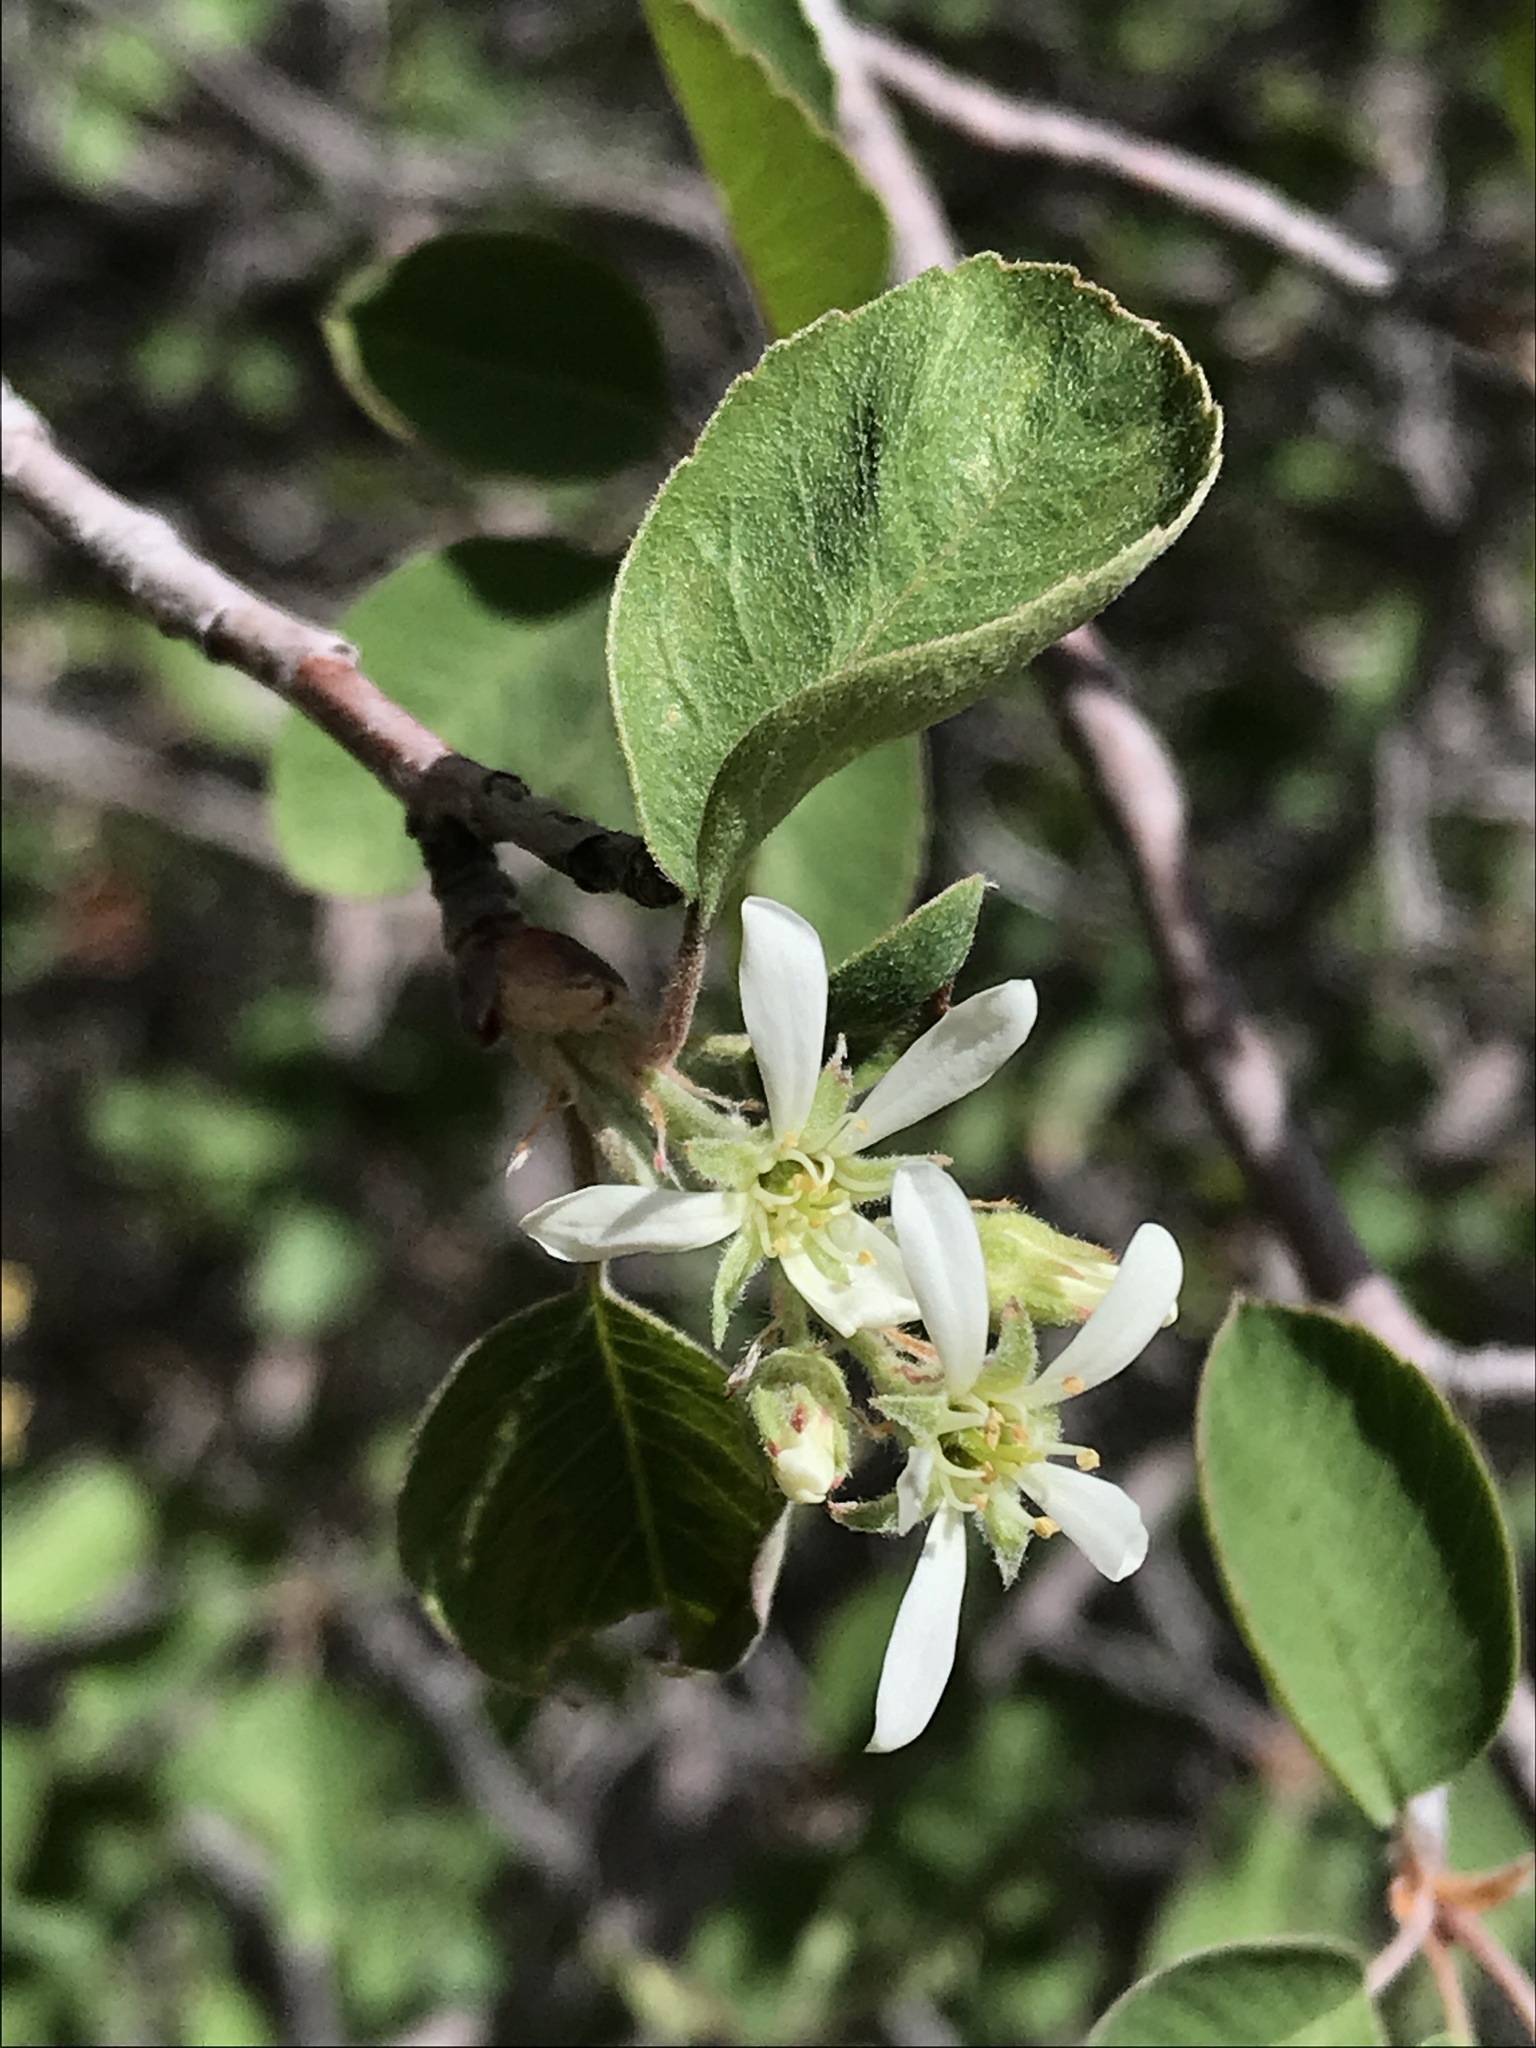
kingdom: Plantae
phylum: Tracheophyta
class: Magnoliopsida
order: Rosales
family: Rosaceae
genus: Amelanchier
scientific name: Amelanchier utahensis
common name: Utah serviceberry
